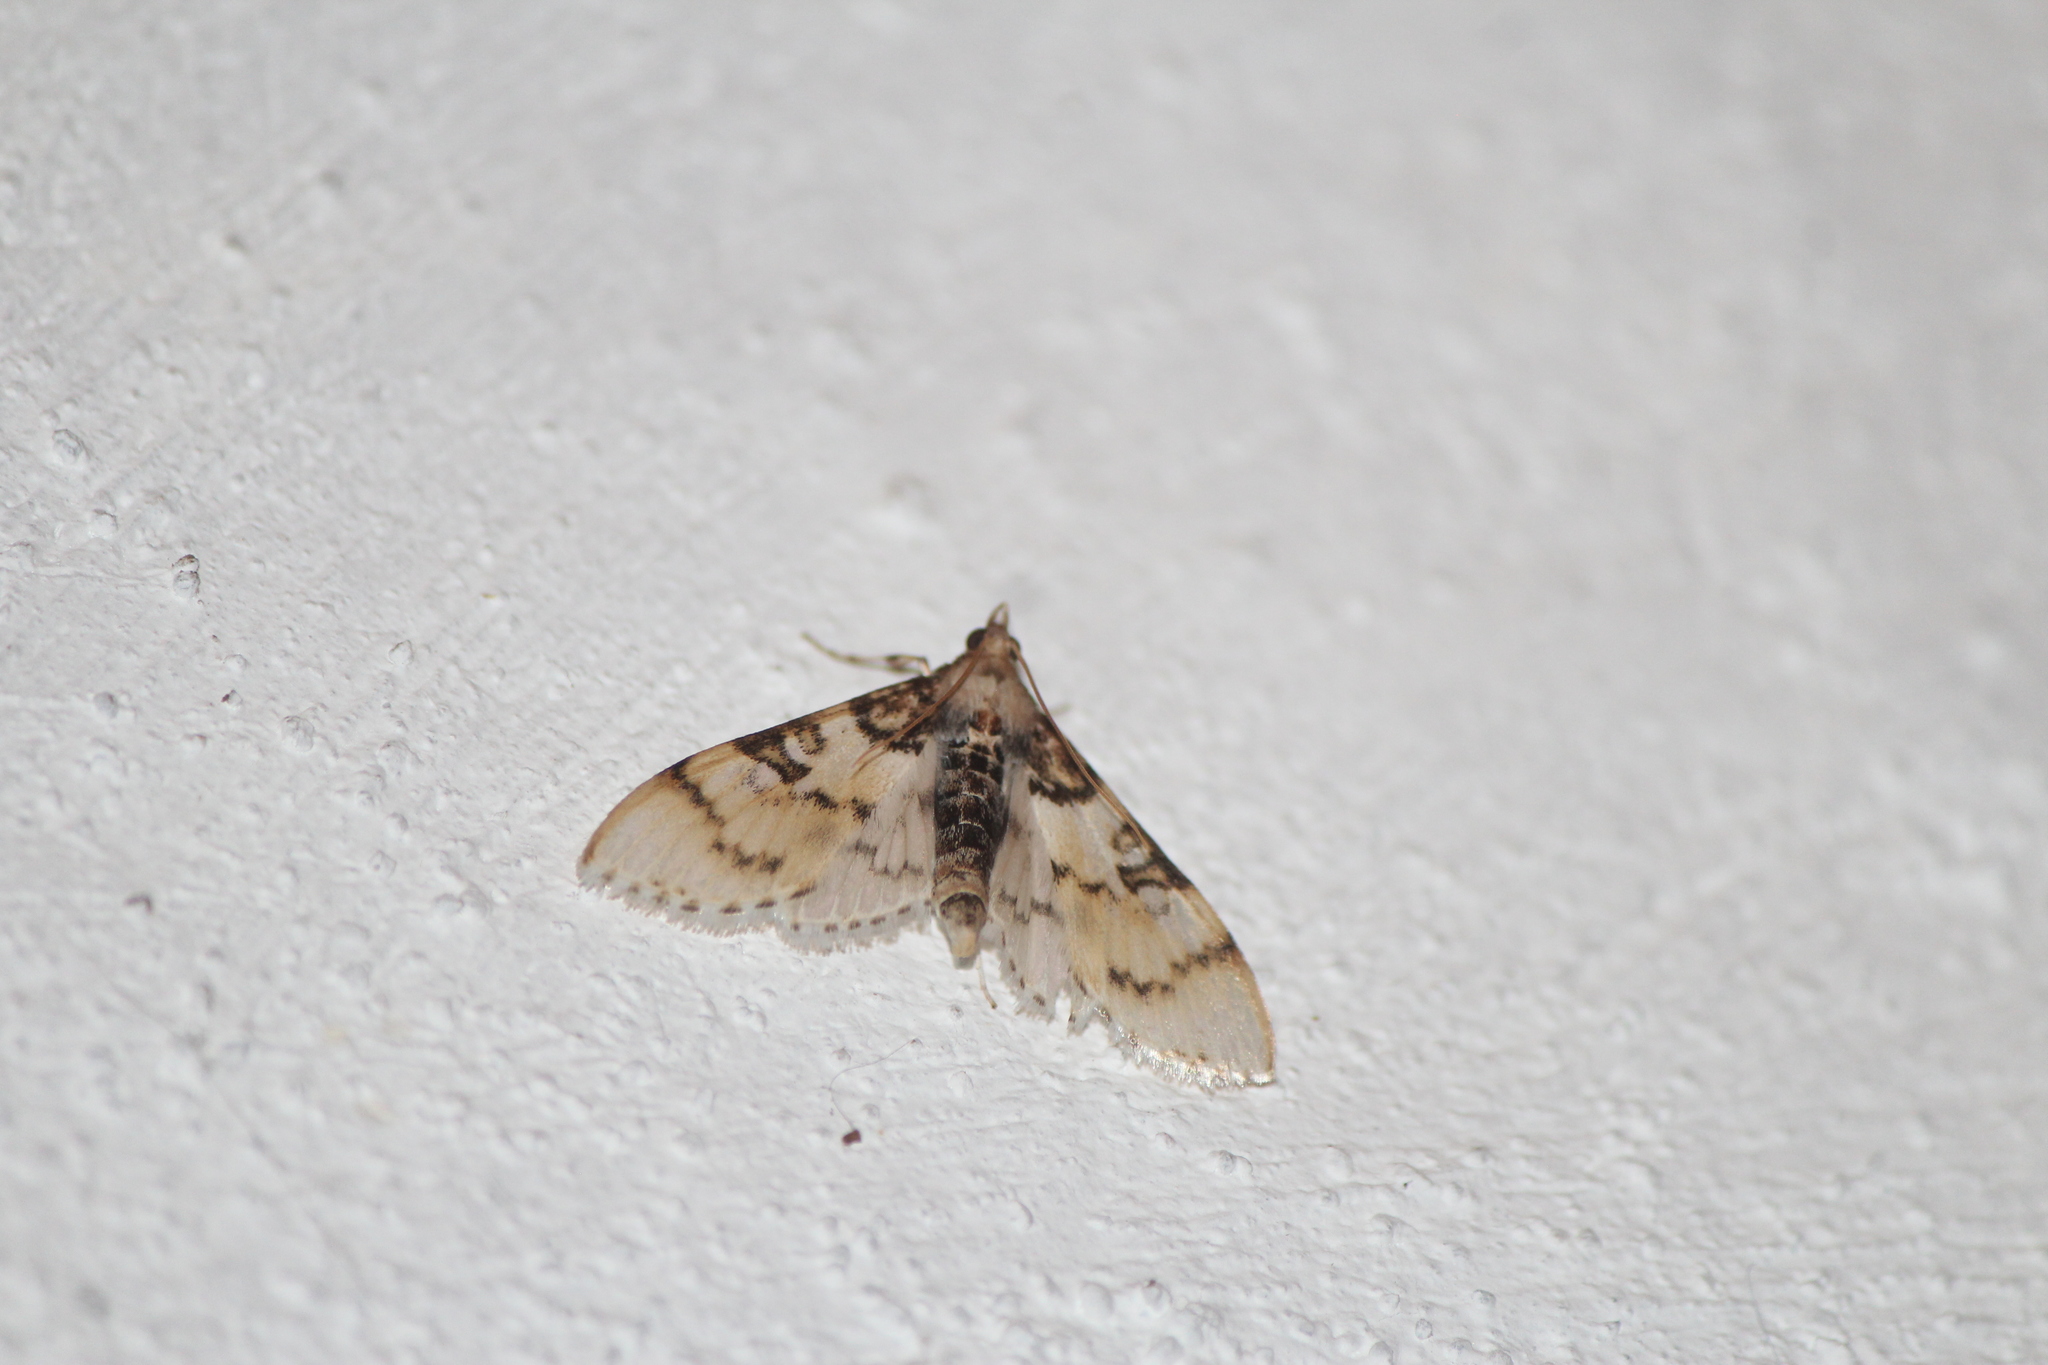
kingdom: Animalia
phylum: Arthropoda
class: Insecta
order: Lepidoptera
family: Crambidae
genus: Azochis
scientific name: Azochis rufidiscalis
